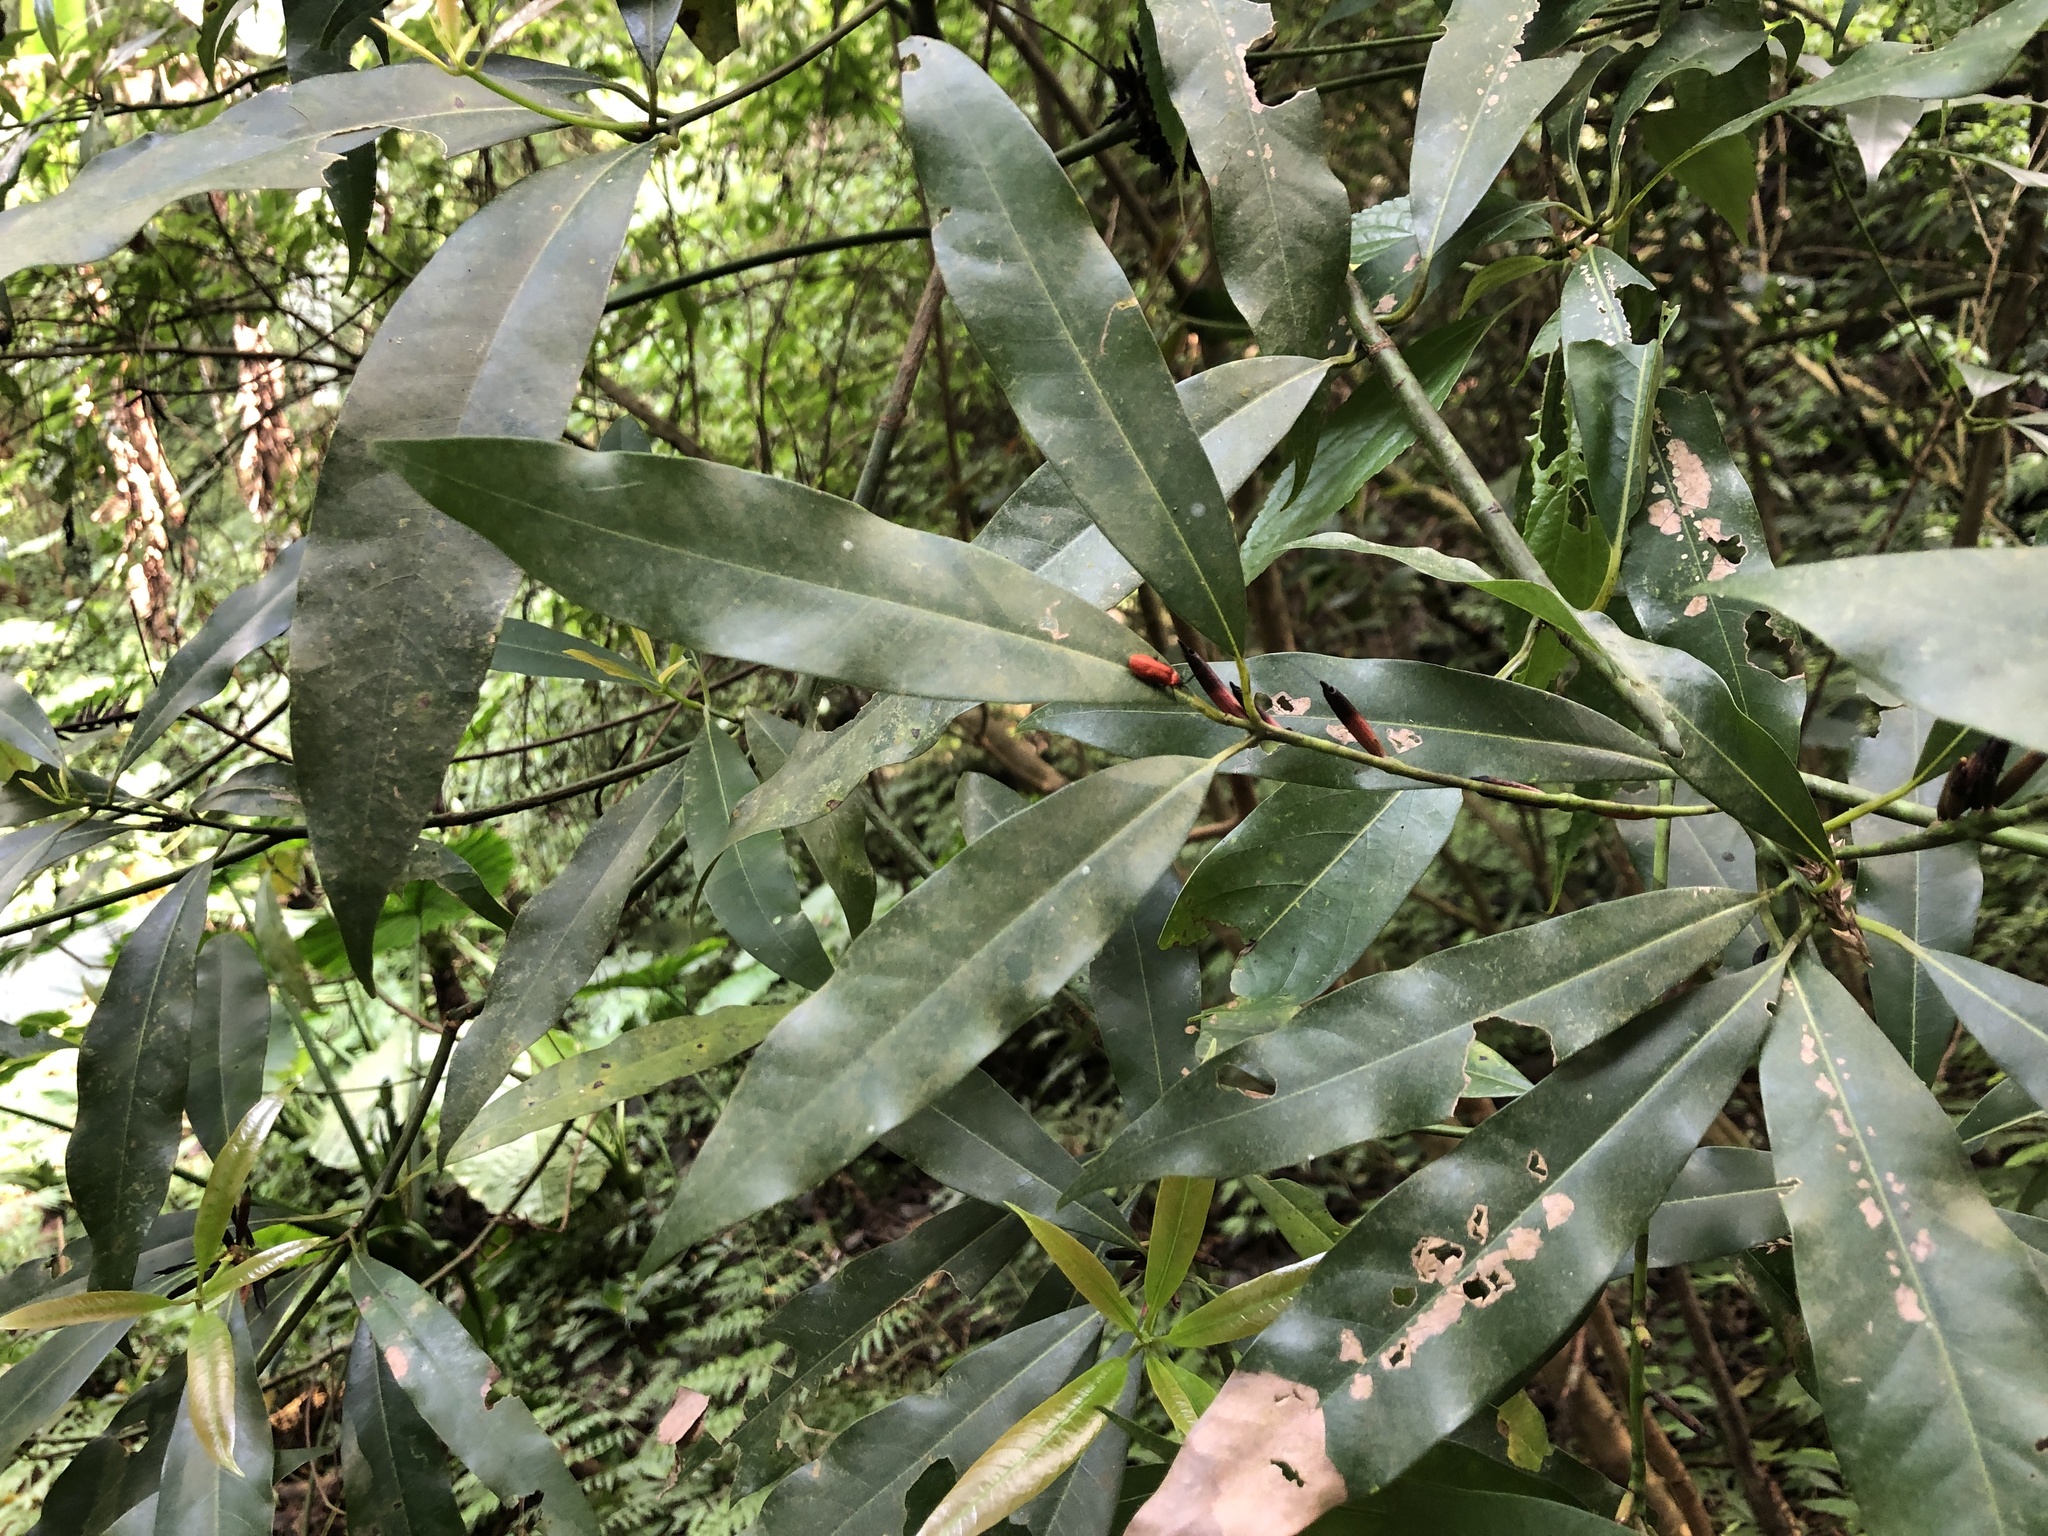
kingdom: Plantae
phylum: Tracheophyta
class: Magnoliopsida
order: Laurales
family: Lauraceae
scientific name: Lauraceae
